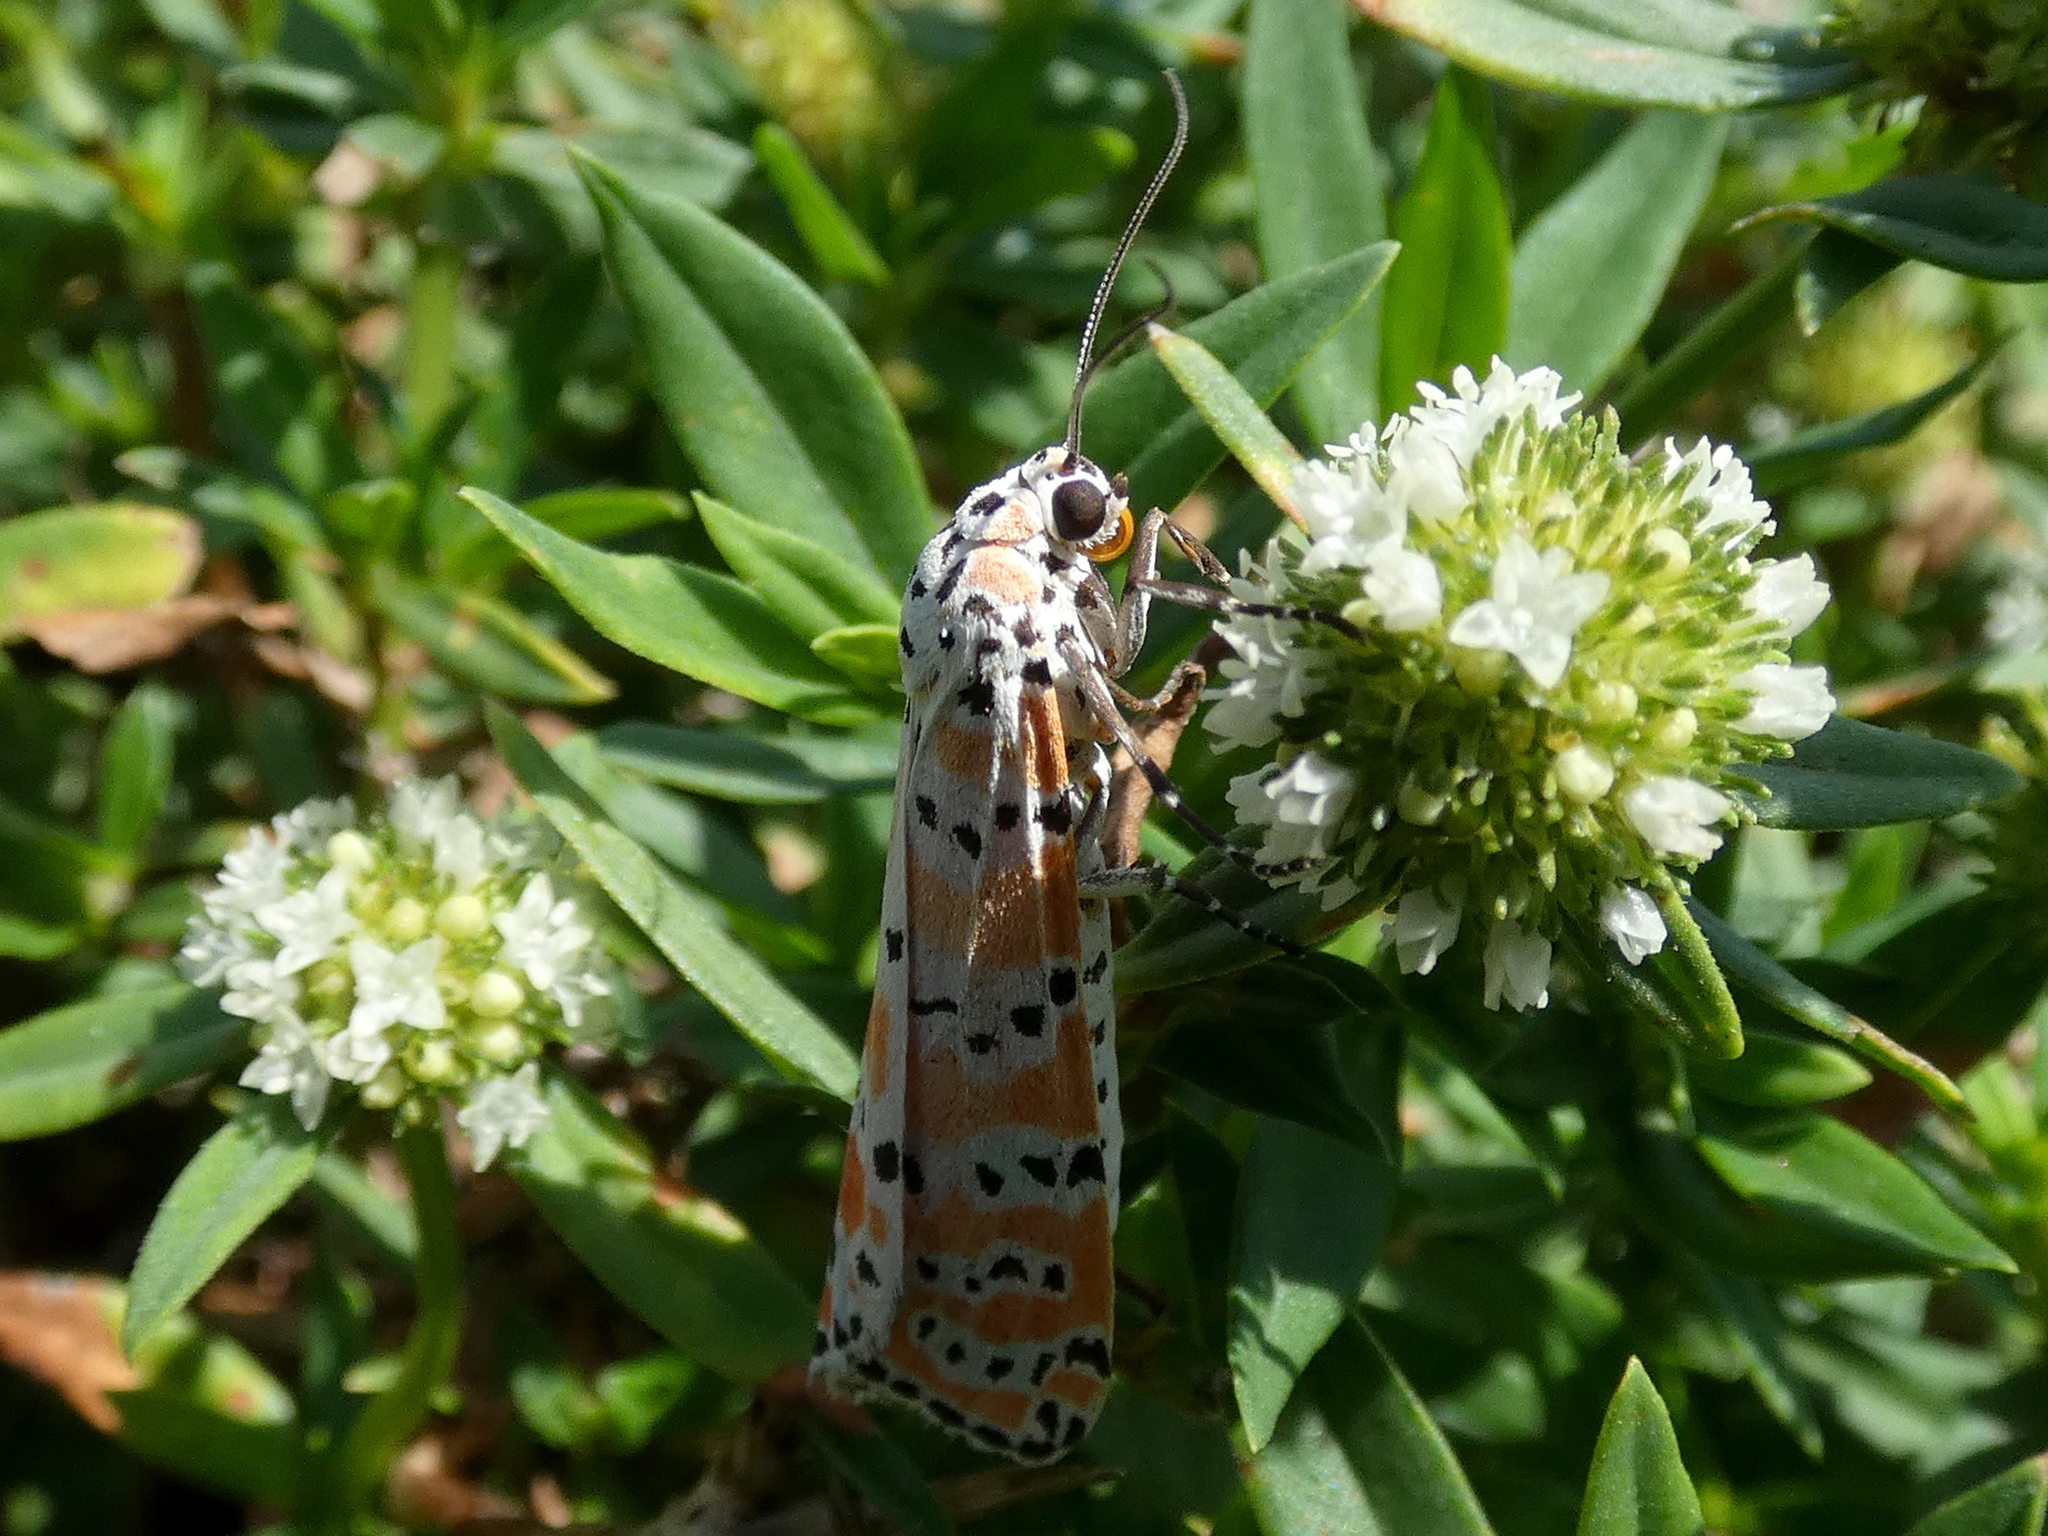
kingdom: Animalia
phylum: Arthropoda
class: Insecta
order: Lepidoptera
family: Erebidae
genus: Utetheisa
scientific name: Utetheisa ornatrix
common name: Beautiful utetheisa
